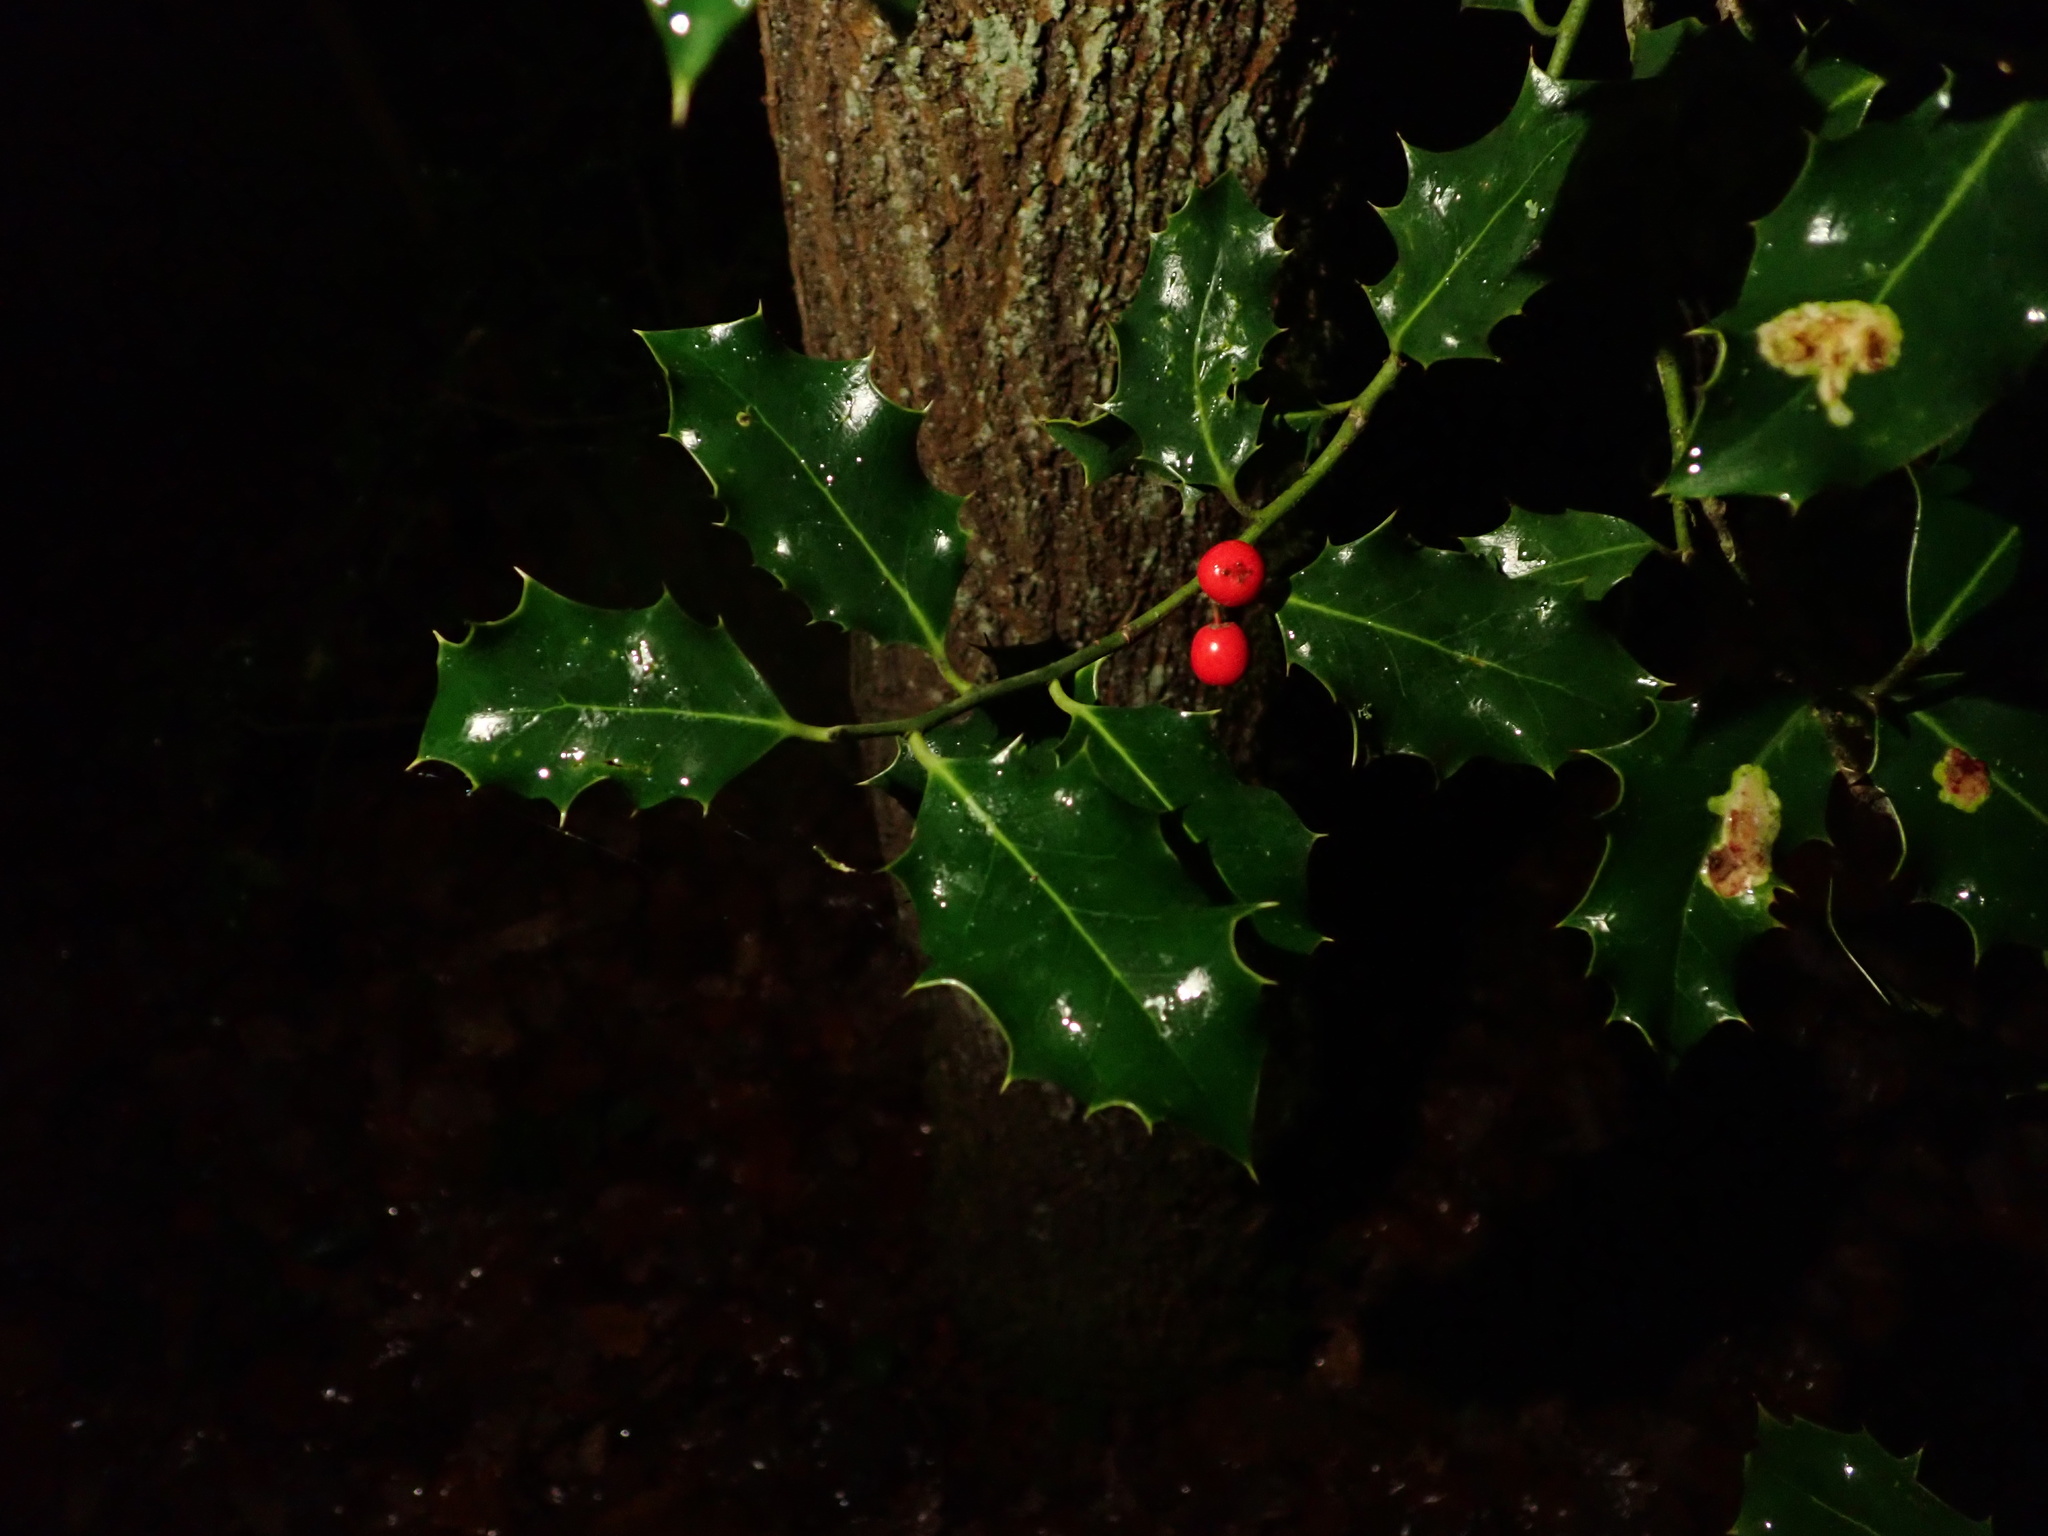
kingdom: Plantae
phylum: Tracheophyta
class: Magnoliopsida
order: Aquifoliales
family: Aquifoliaceae
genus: Ilex
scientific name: Ilex aquifolium
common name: English holly
